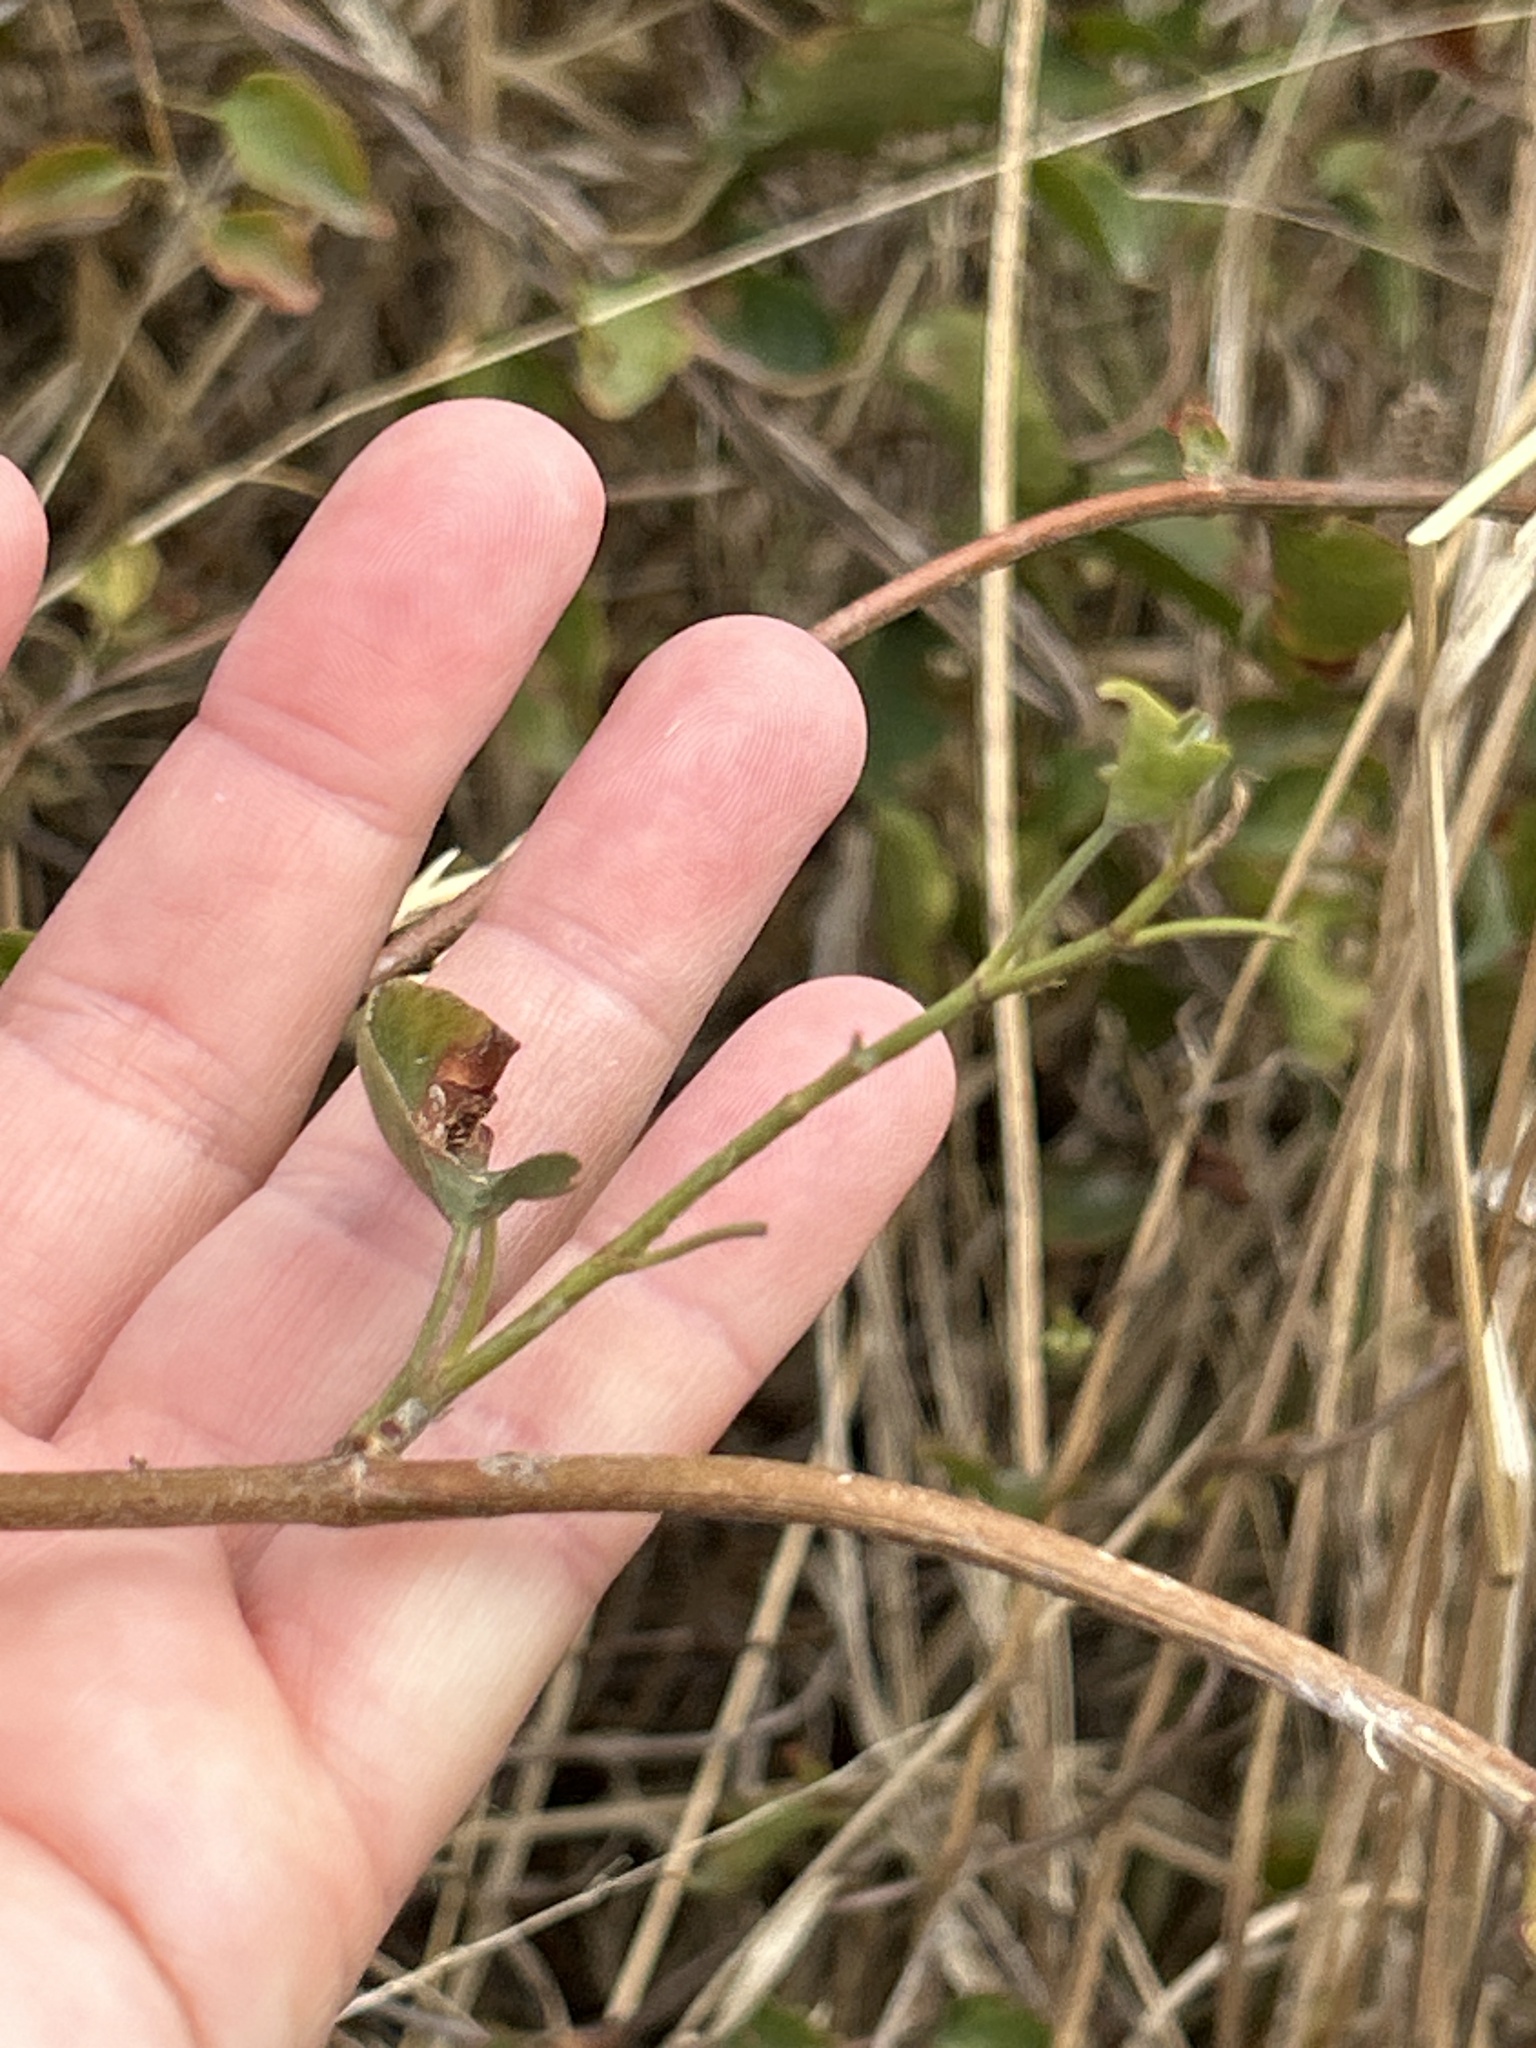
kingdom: Plantae
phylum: Tracheophyta
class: Magnoliopsida
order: Caryophyllales
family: Polygonaceae
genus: Muehlenbeckia
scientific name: Muehlenbeckia australis
